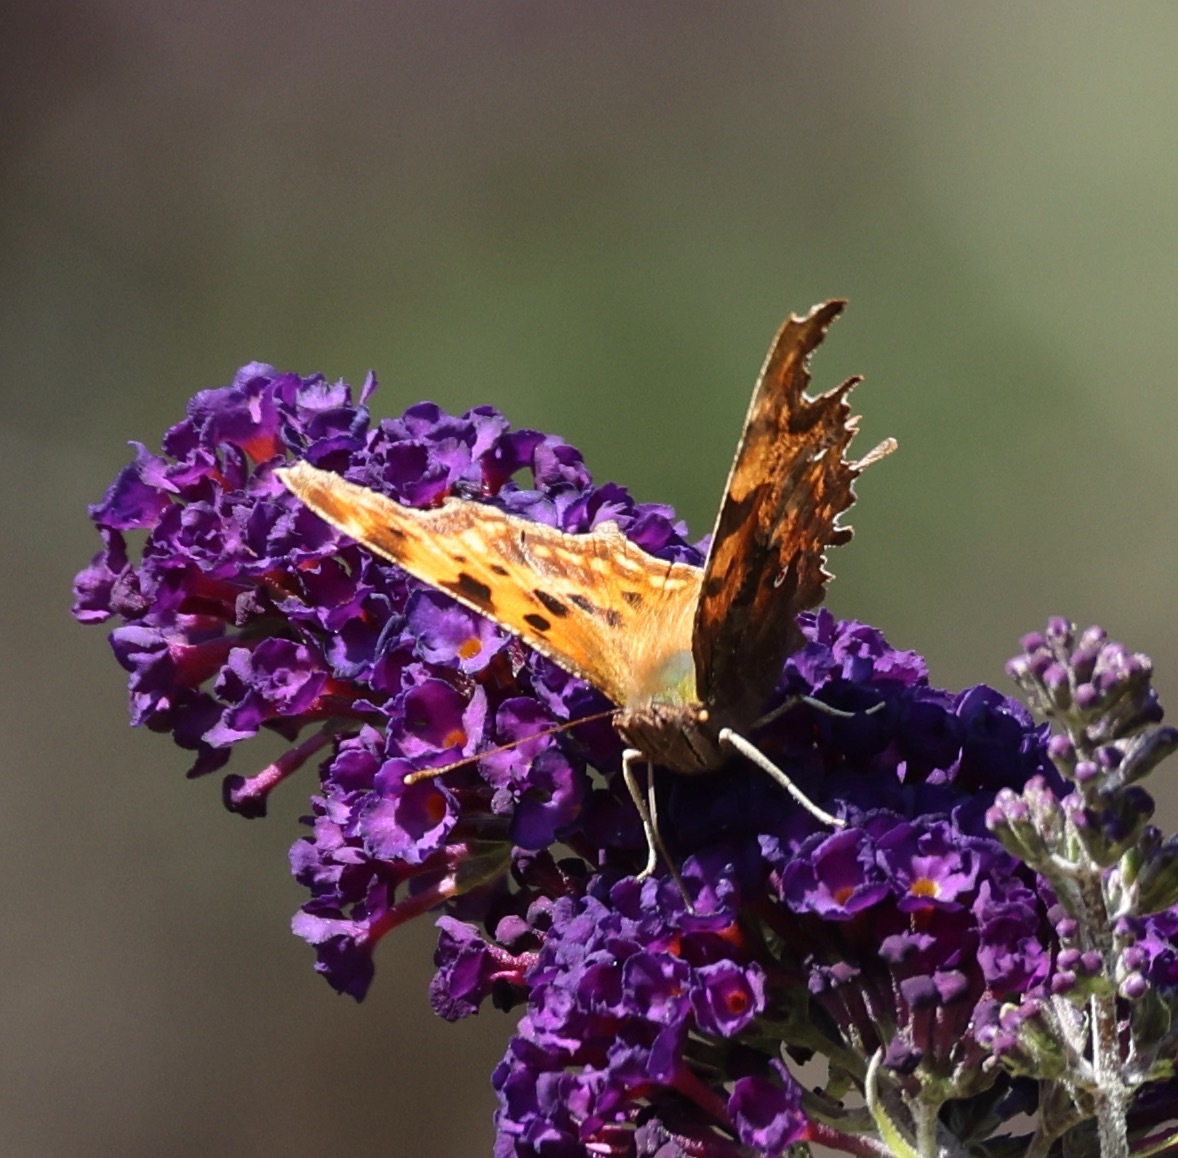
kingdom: Animalia
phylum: Arthropoda
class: Insecta
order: Lepidoptera
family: Nymphalidae
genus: Polygonia
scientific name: Polygonia c-album
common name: Comma
